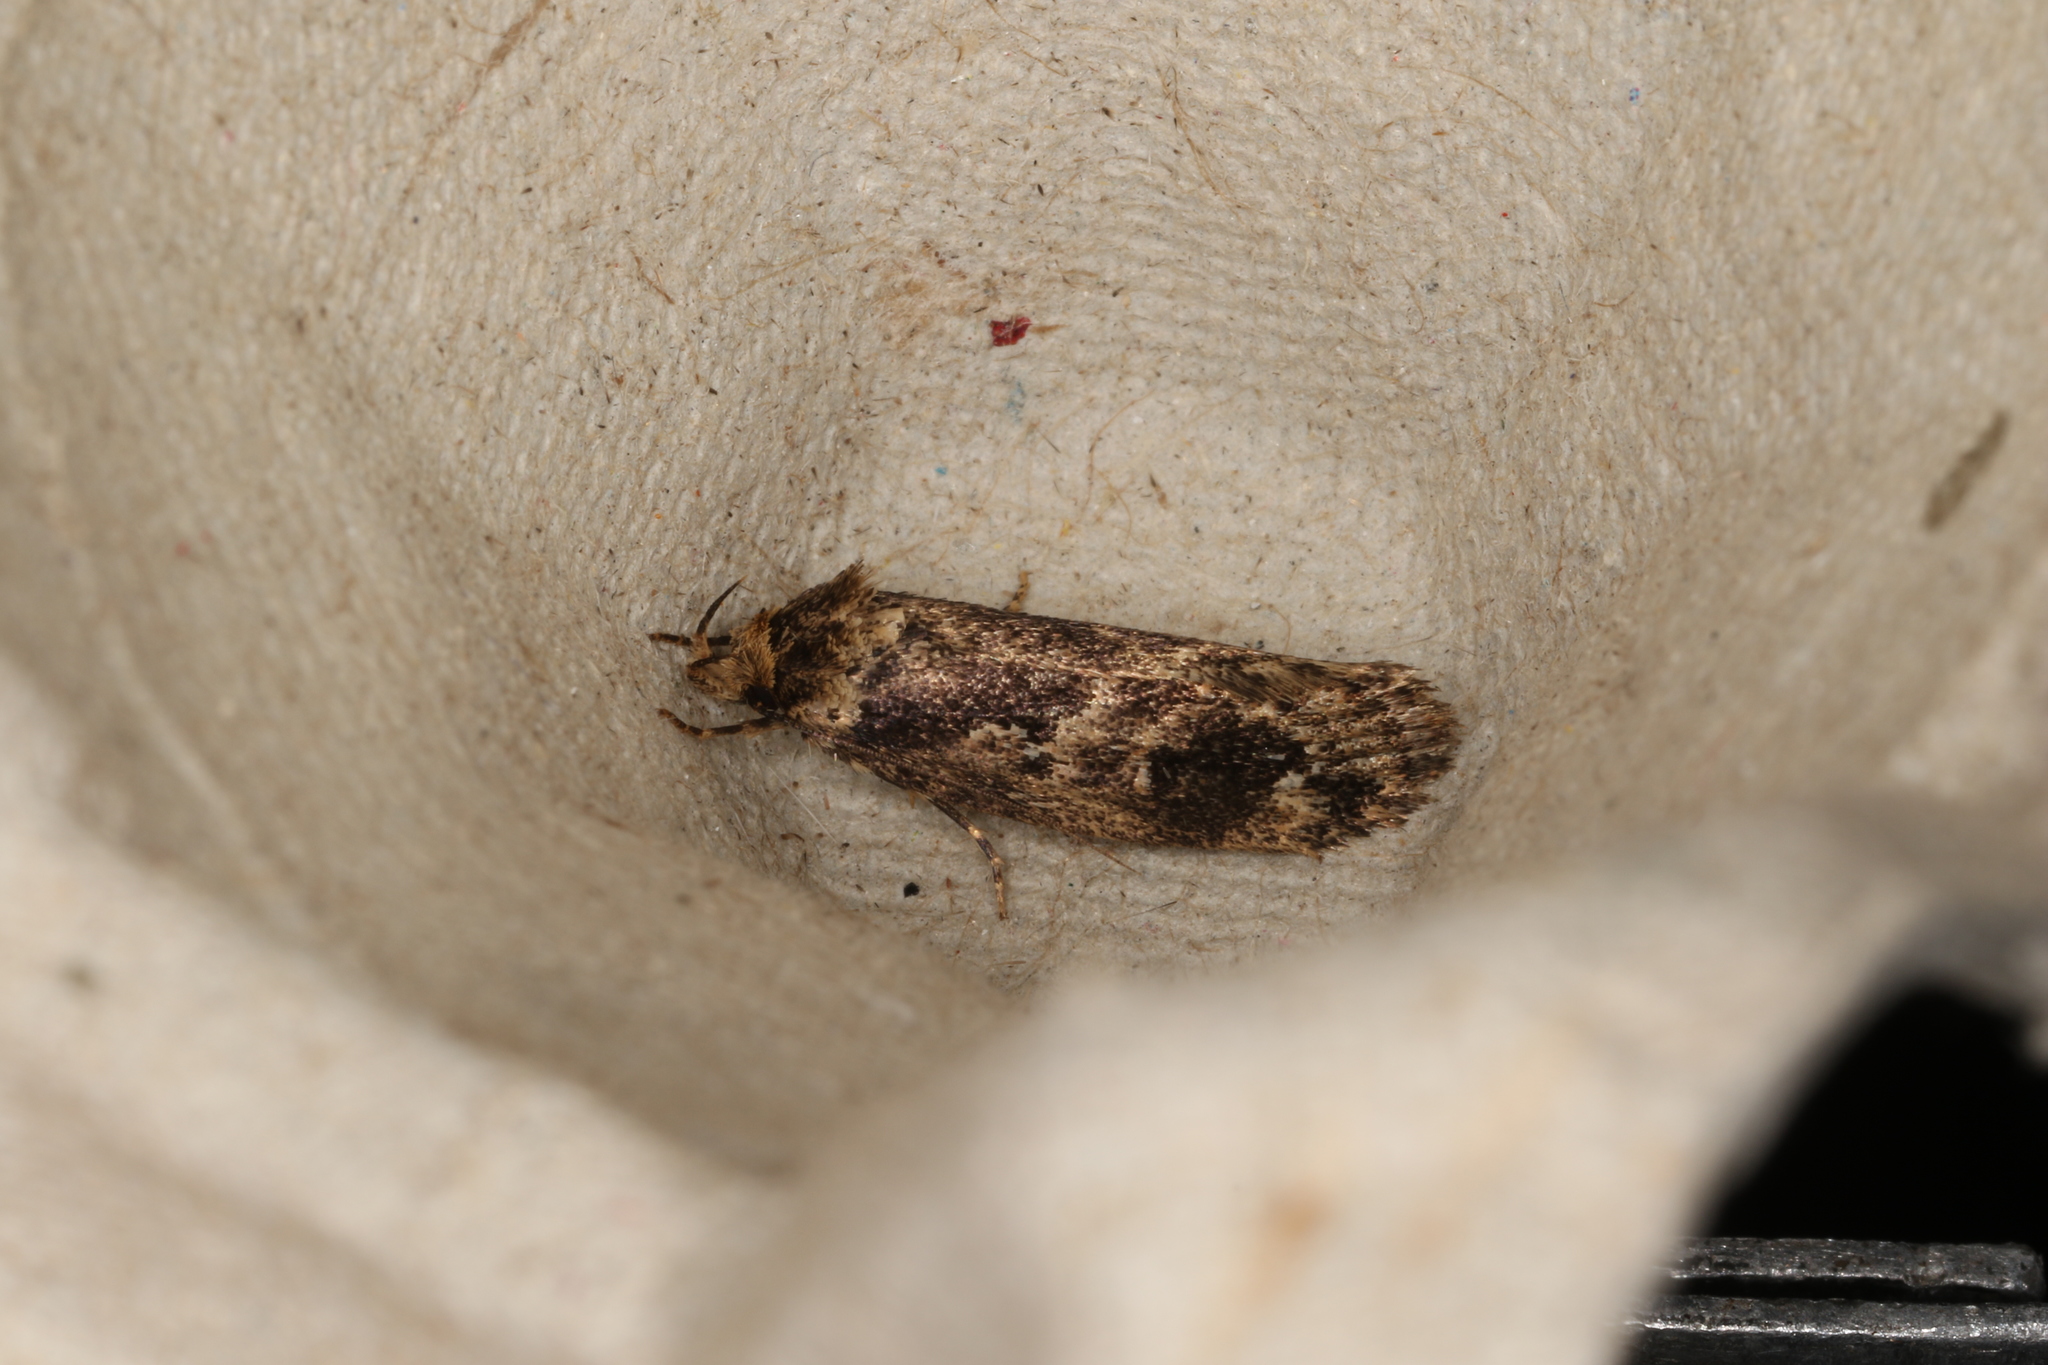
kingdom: Animalia
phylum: Arthropoda
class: Insecta
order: Lepidoptera
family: Oecophoridae
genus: Barea
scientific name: Barea consignatella
